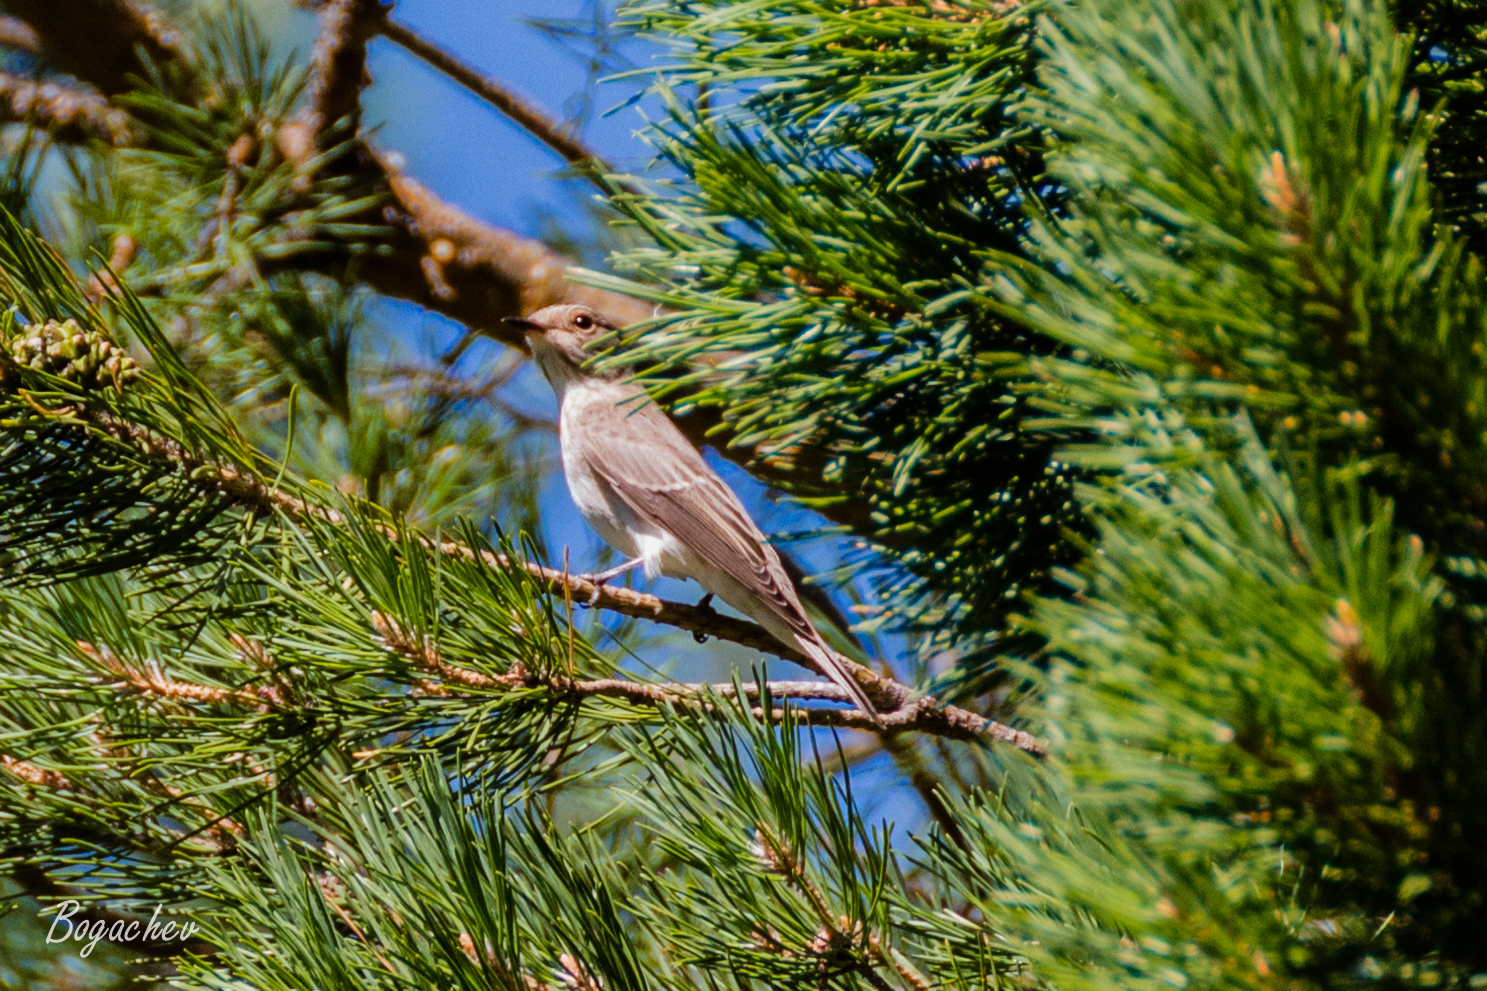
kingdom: Animalia
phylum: Chordata
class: Aves
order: Passeriformes
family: Muscicapidae
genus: Muscicapa
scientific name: Muscicapa striata
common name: Spotted flycatcher
